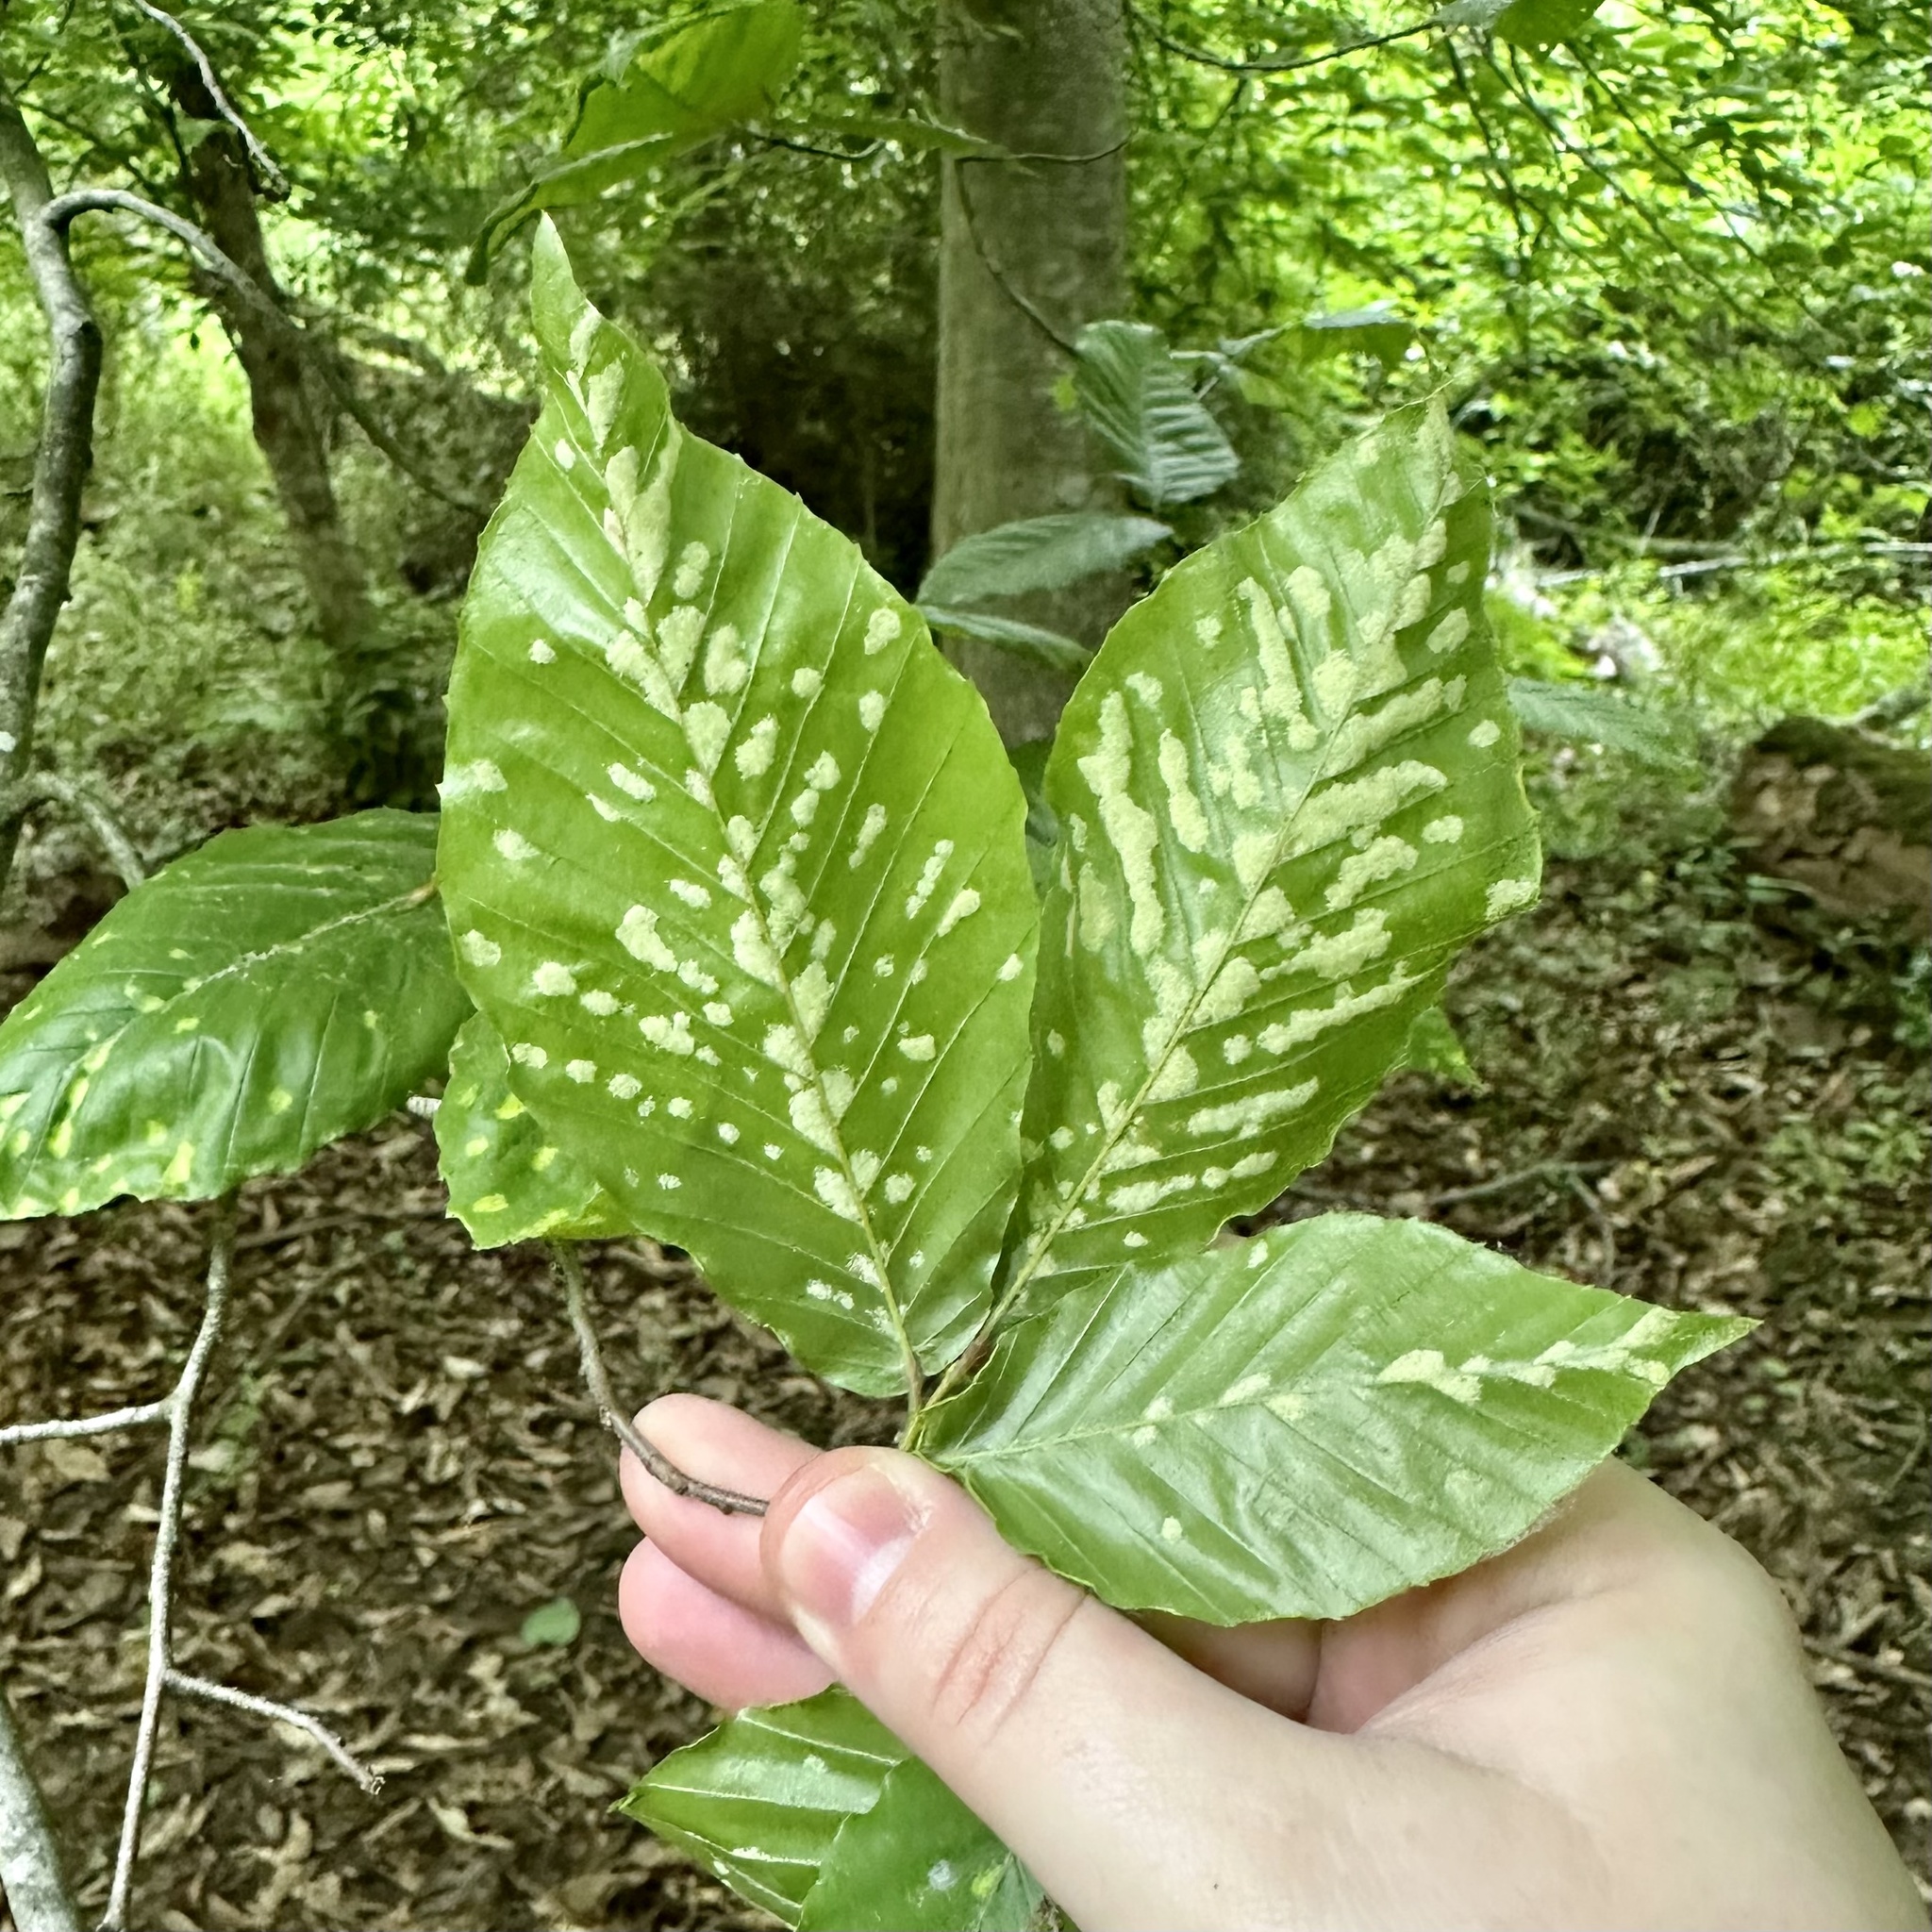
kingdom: Animalia
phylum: Arthropoda
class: Arachnida
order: Trombidiformes
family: Eriophyidae
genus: Acalitus
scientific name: Acalitus
